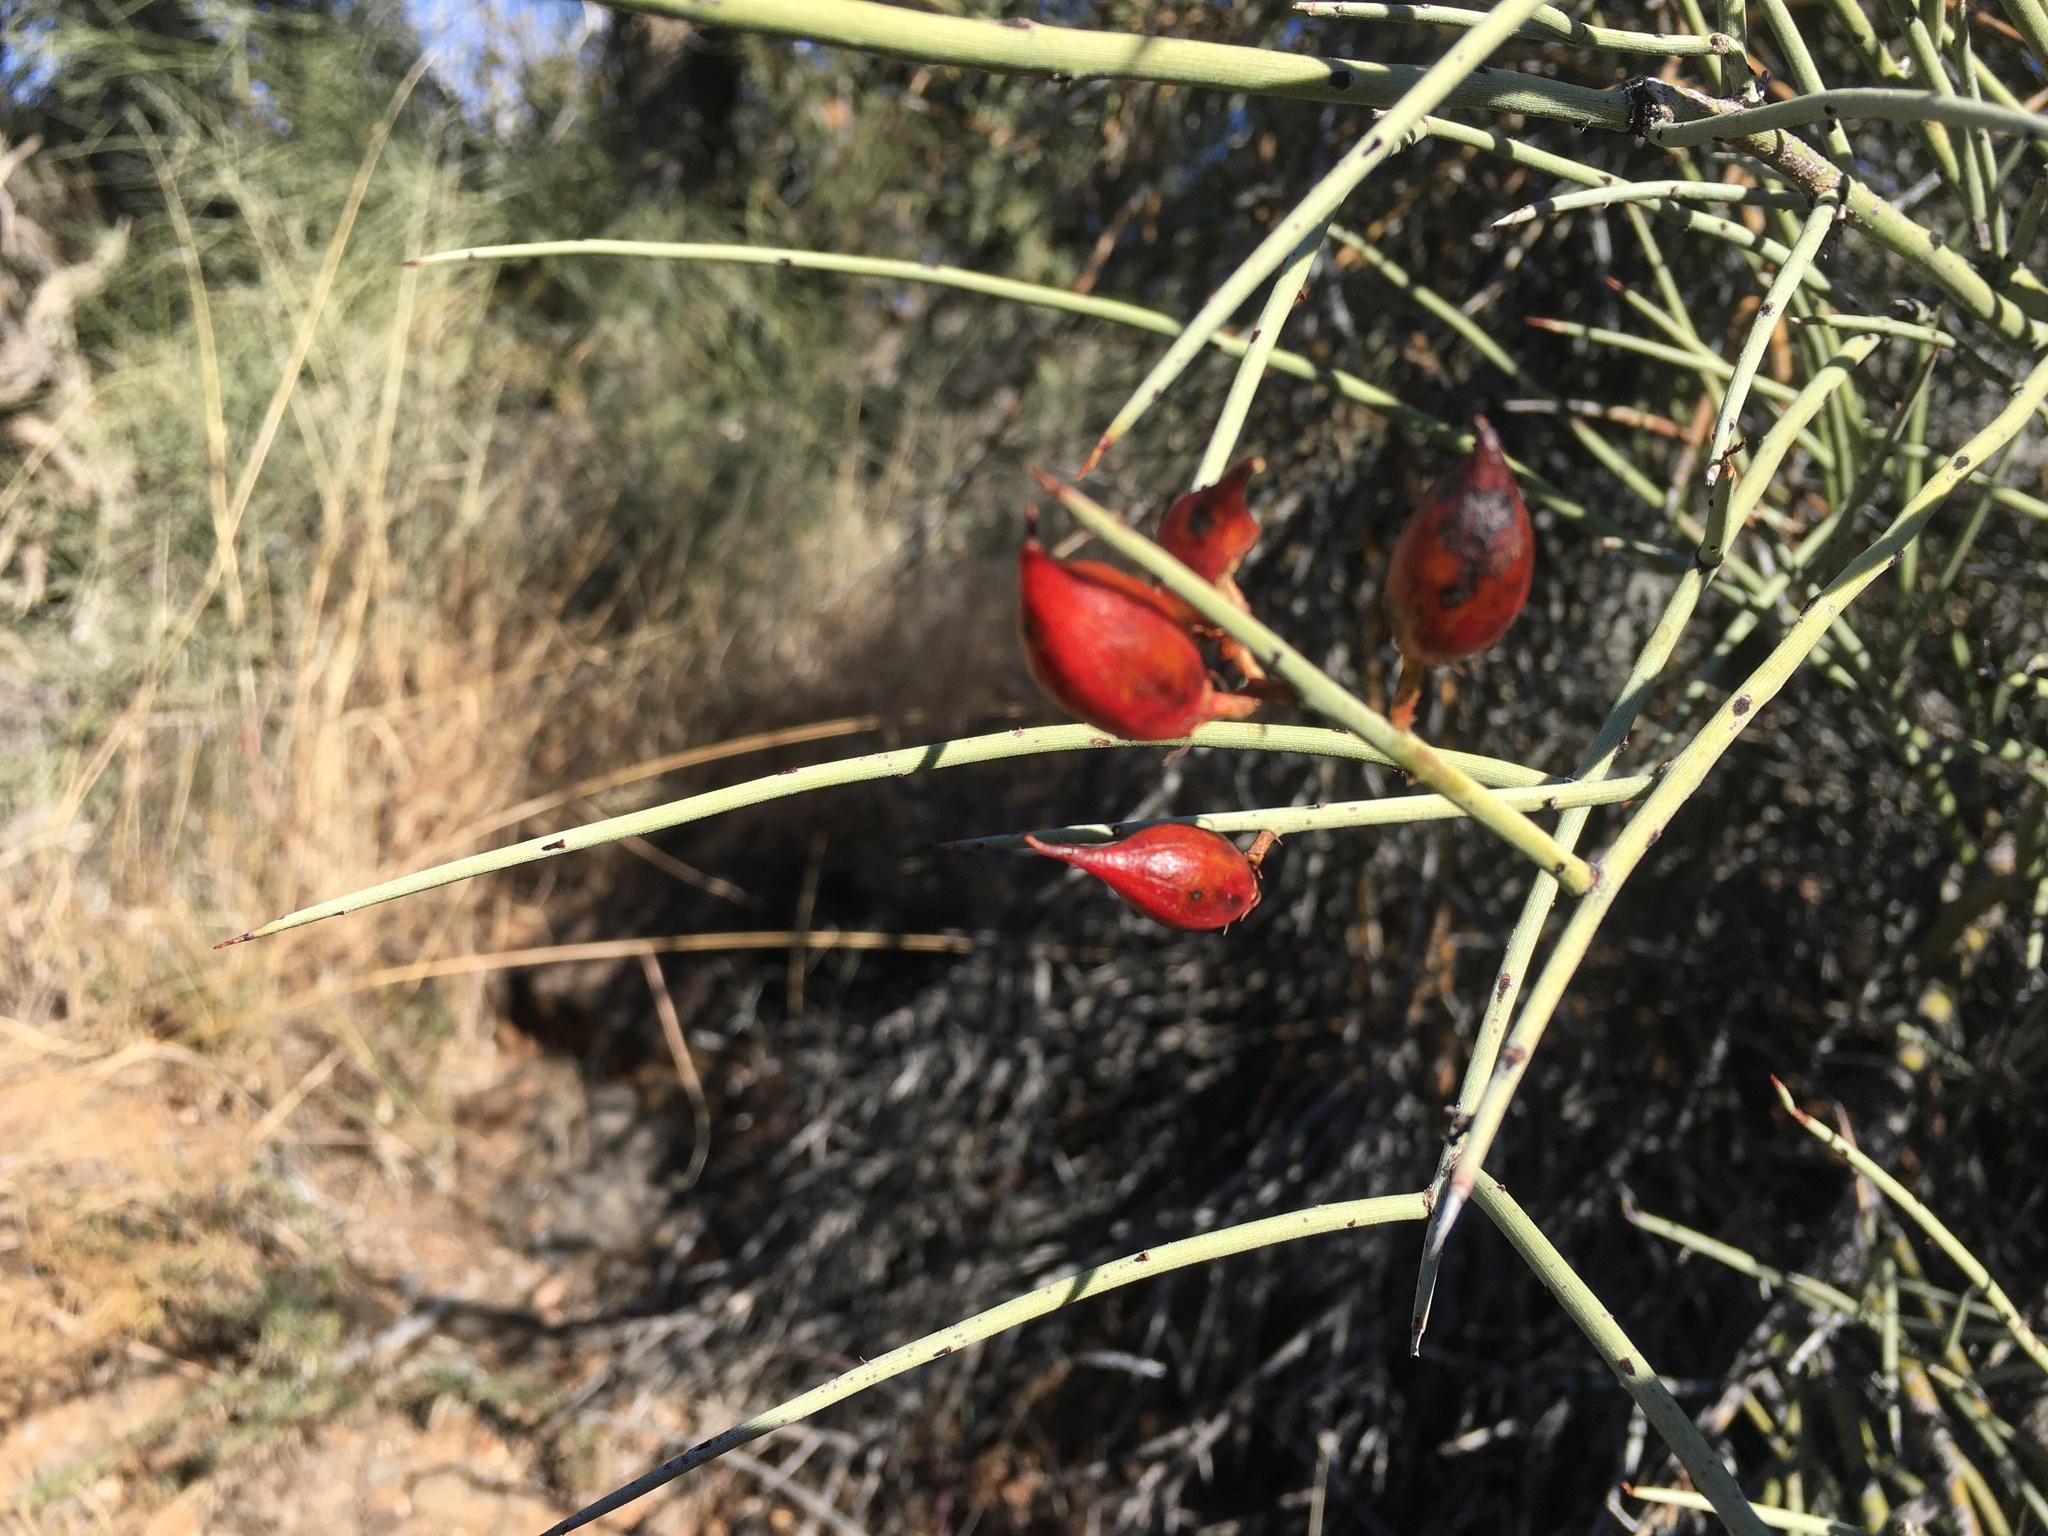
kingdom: Plantae
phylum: Tracheophyta
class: Magnoliopsida
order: Celastrales
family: Celastraceae
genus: Canotia
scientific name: Canotia holacantha
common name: Crucifixion thorns
